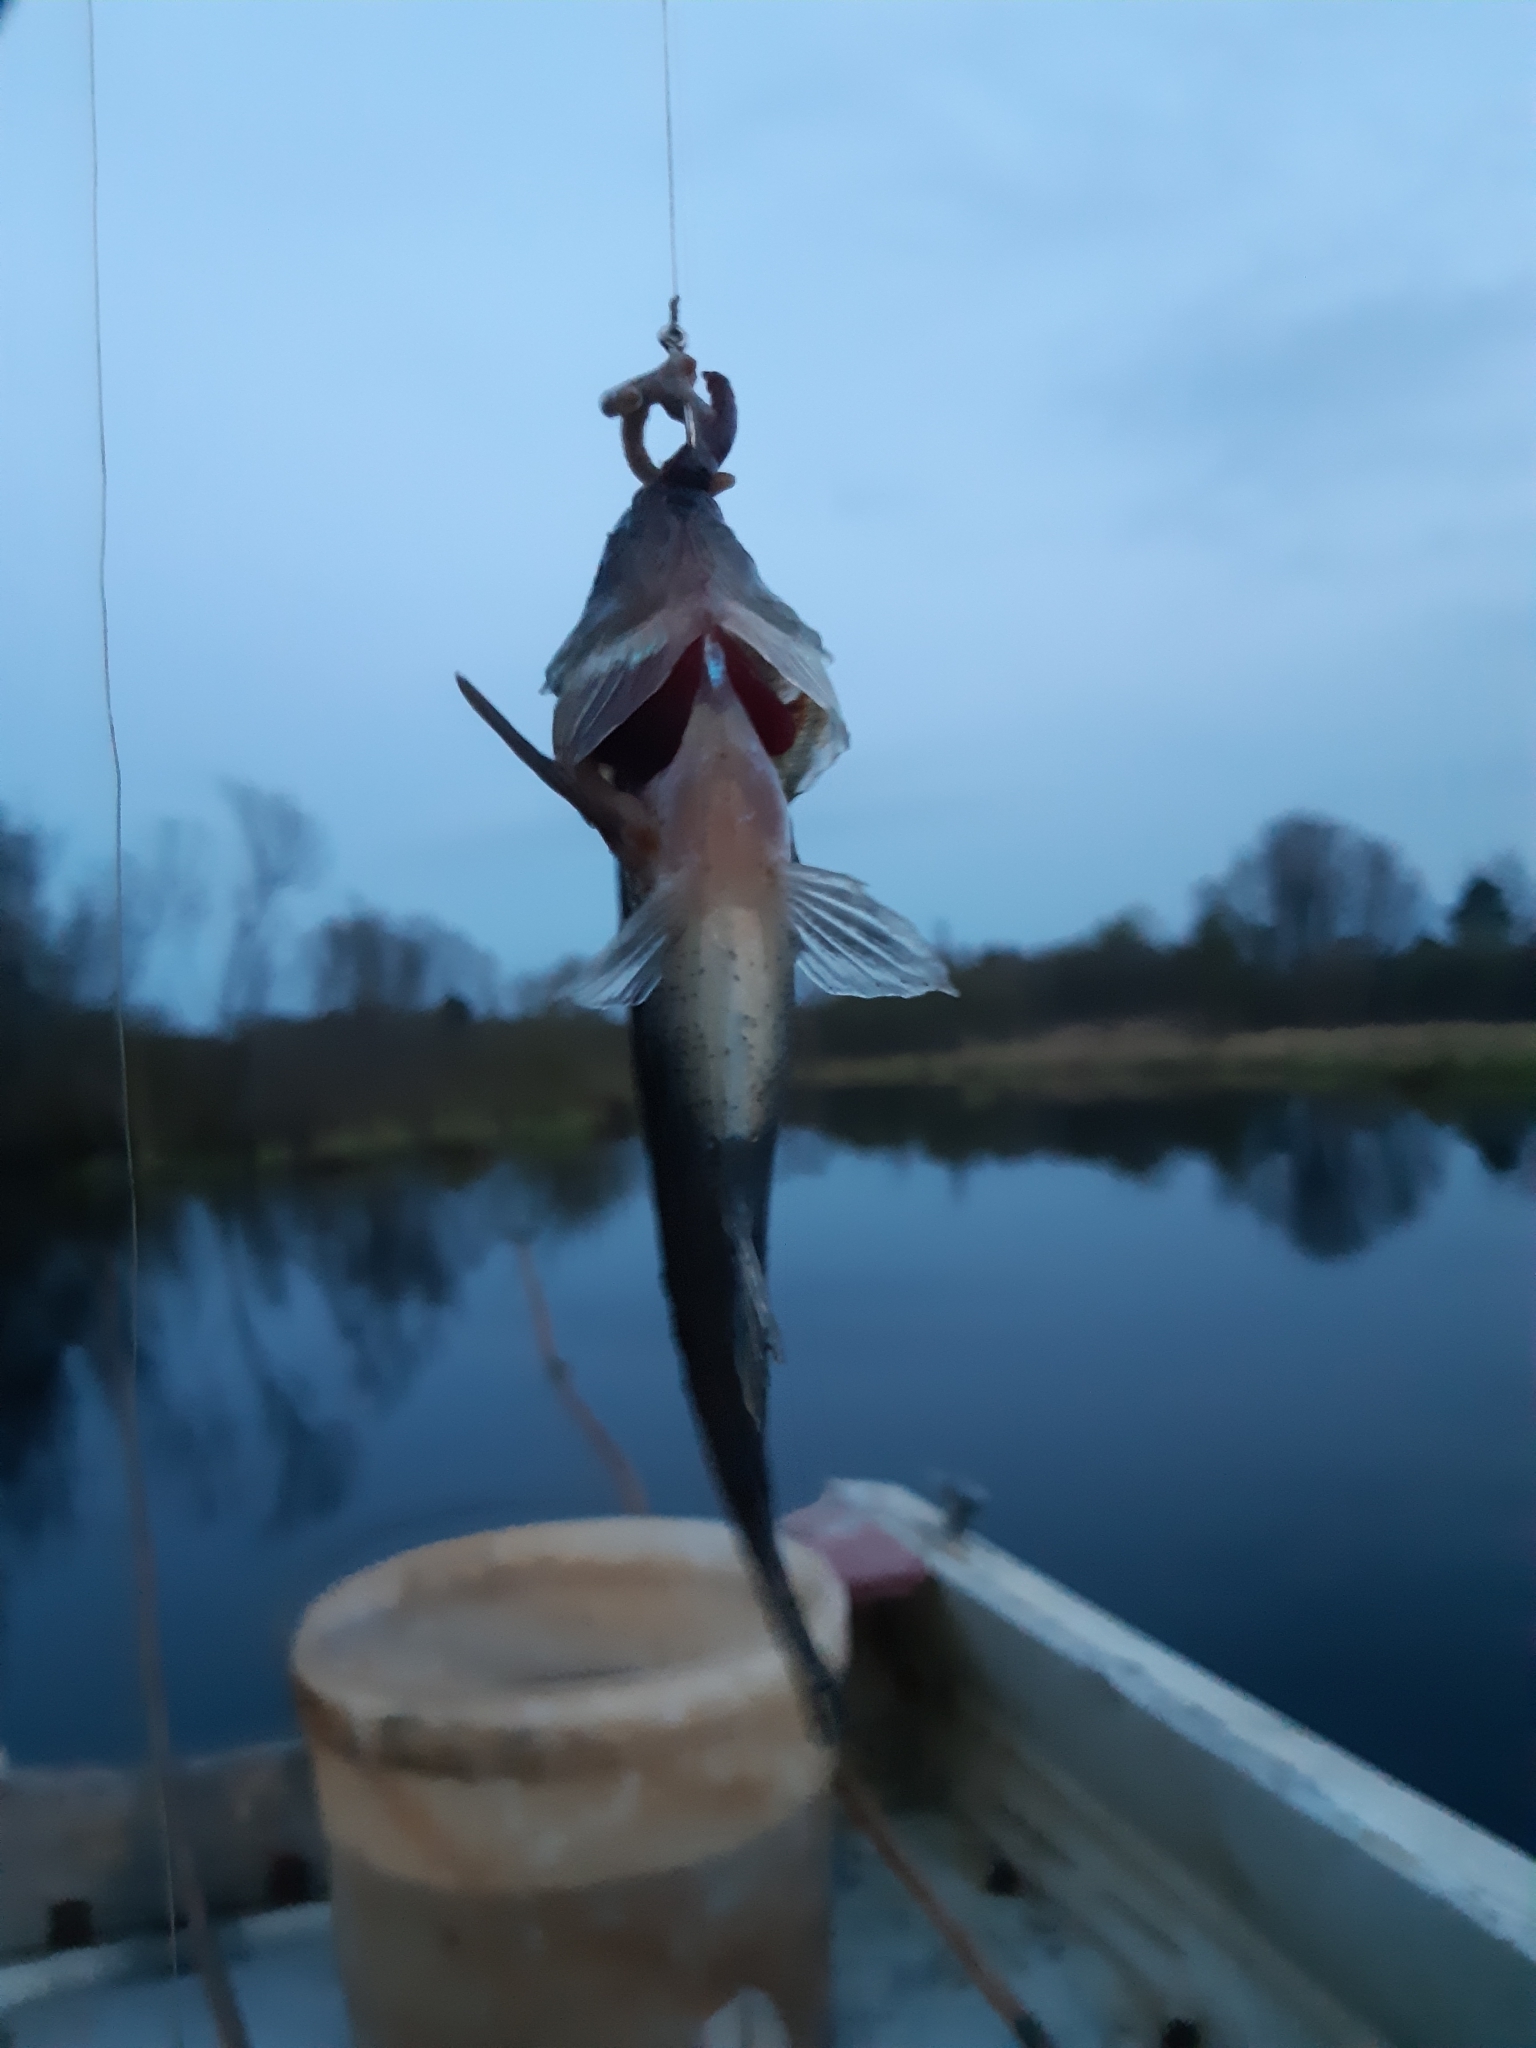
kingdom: Animalia
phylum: Chordata
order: Perciformes
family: Percidae
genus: Gymnocephalus
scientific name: Gymnocephalus cernua
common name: Ruffe
